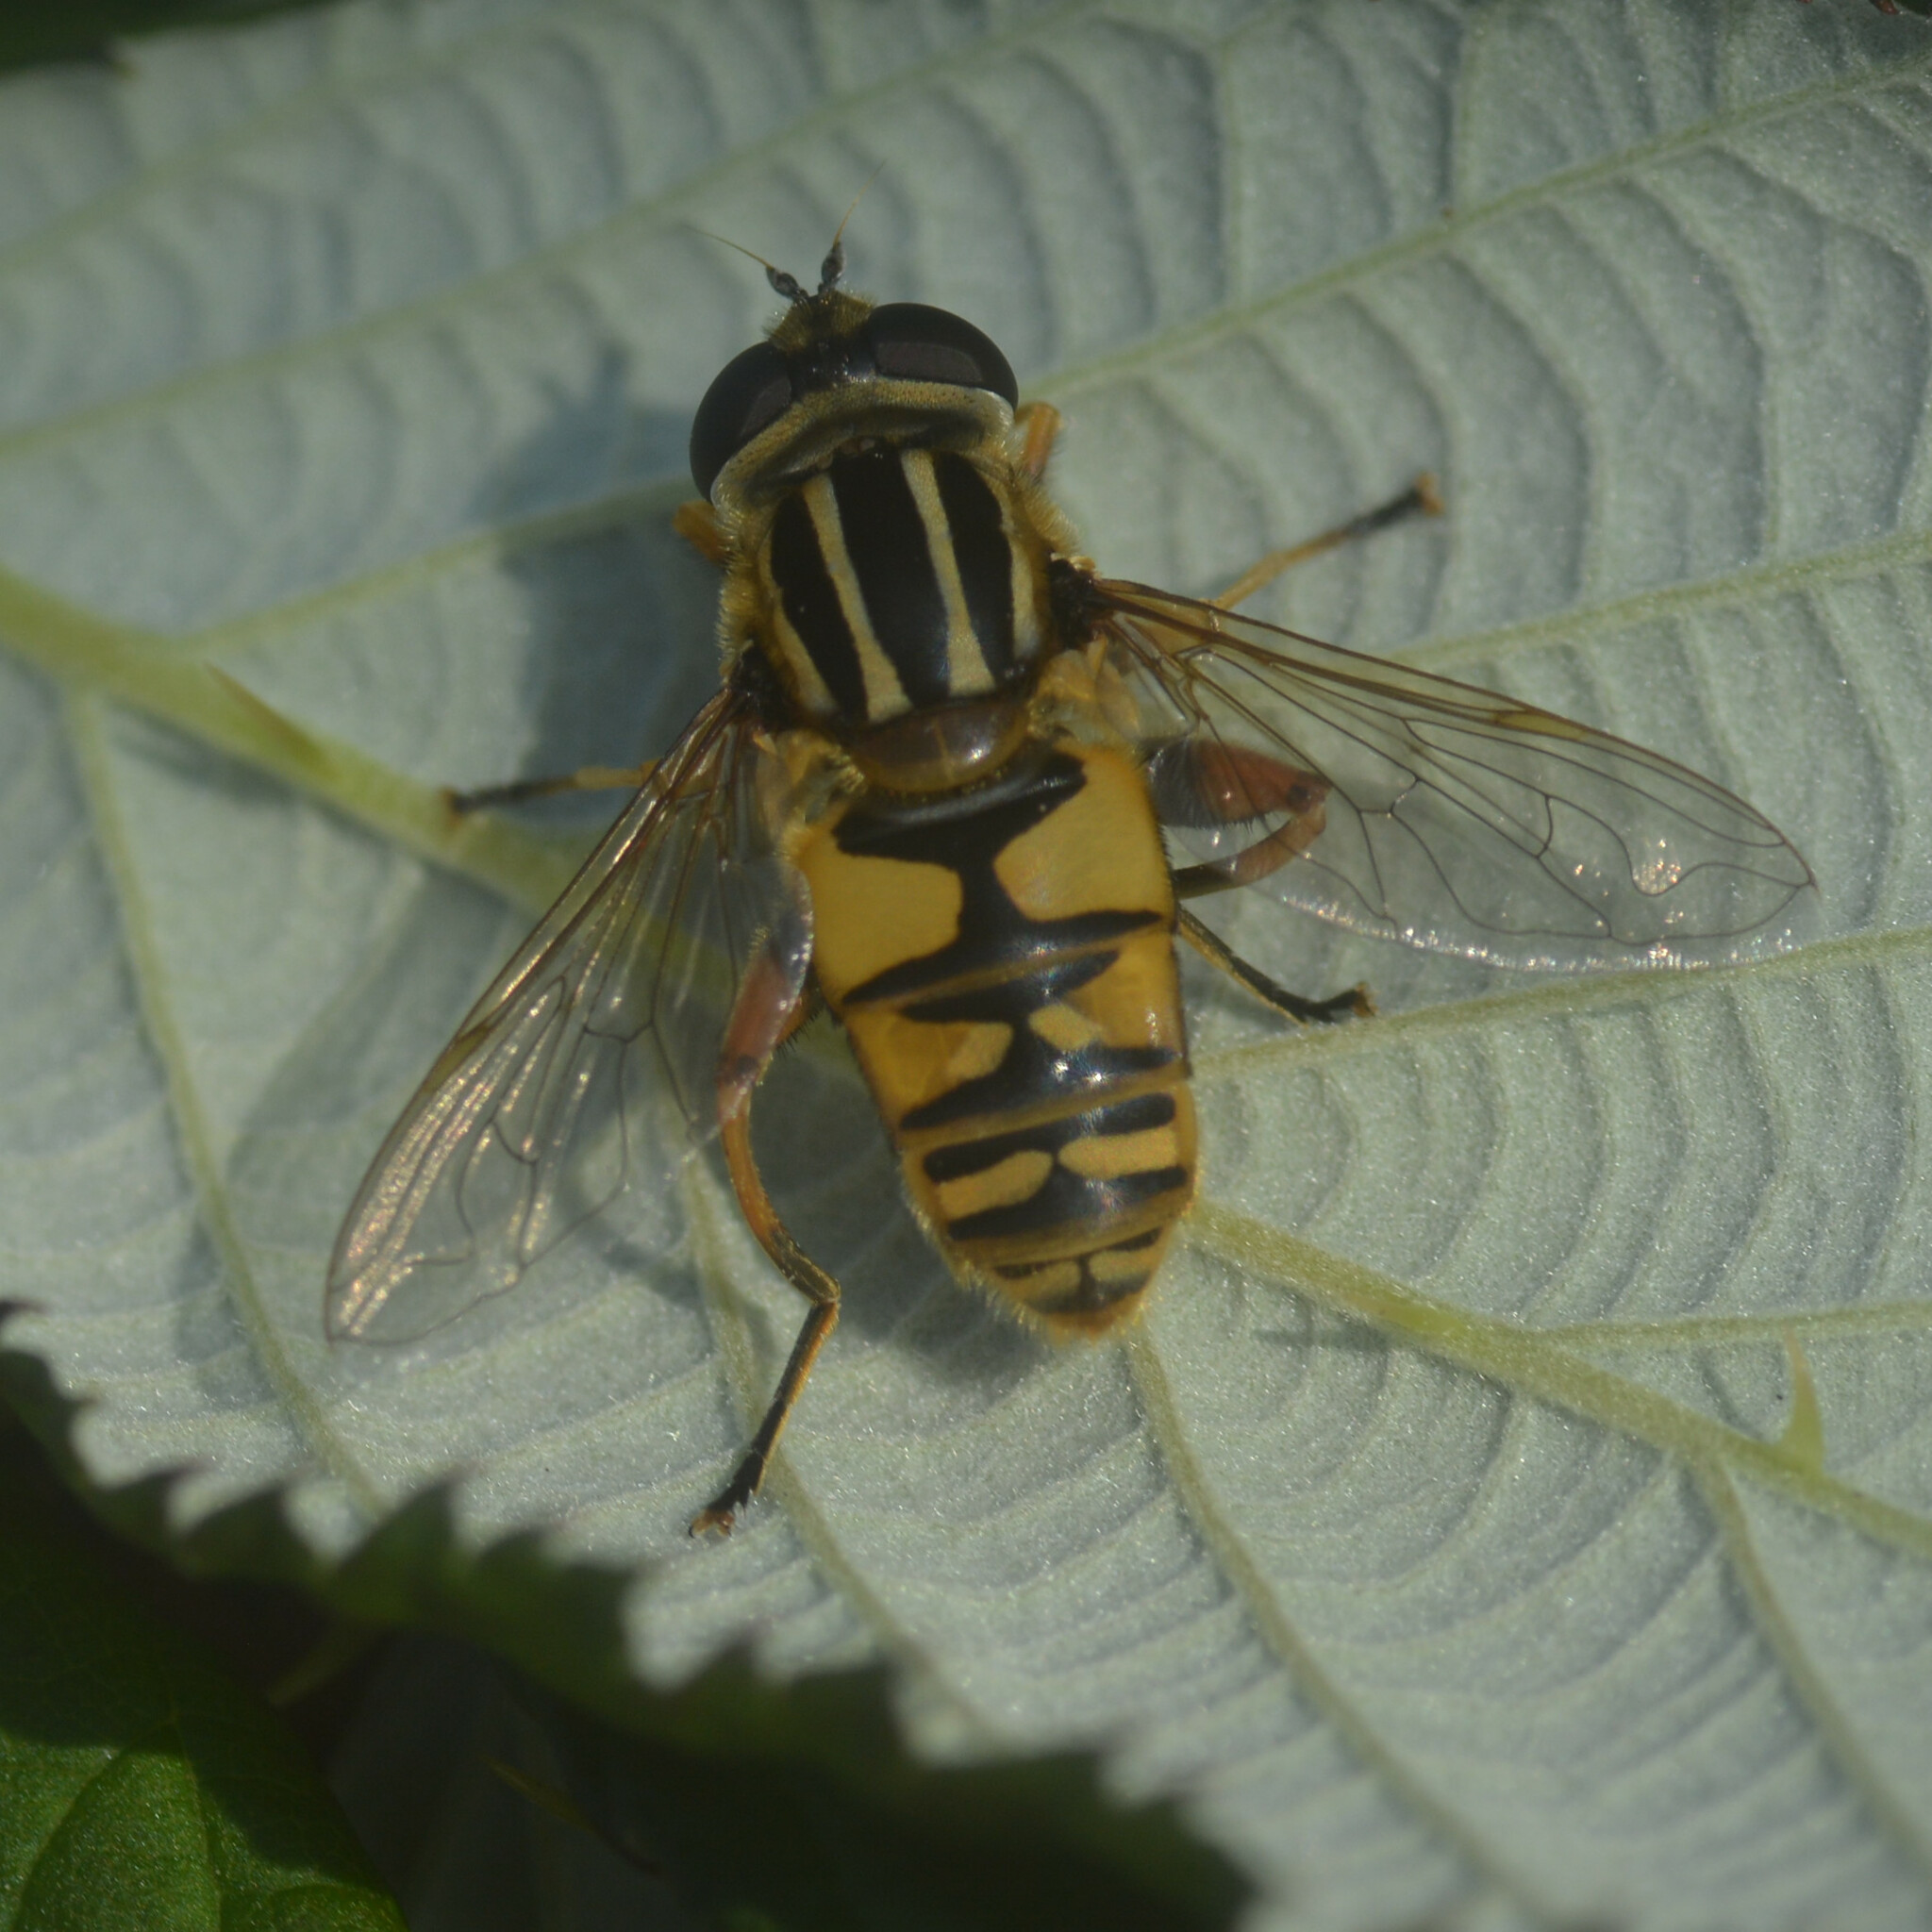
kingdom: Animalia
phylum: Arthropoda
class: Insecta
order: Diptera
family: Syrphidae
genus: Helophilus
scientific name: Helophilus pendulus
